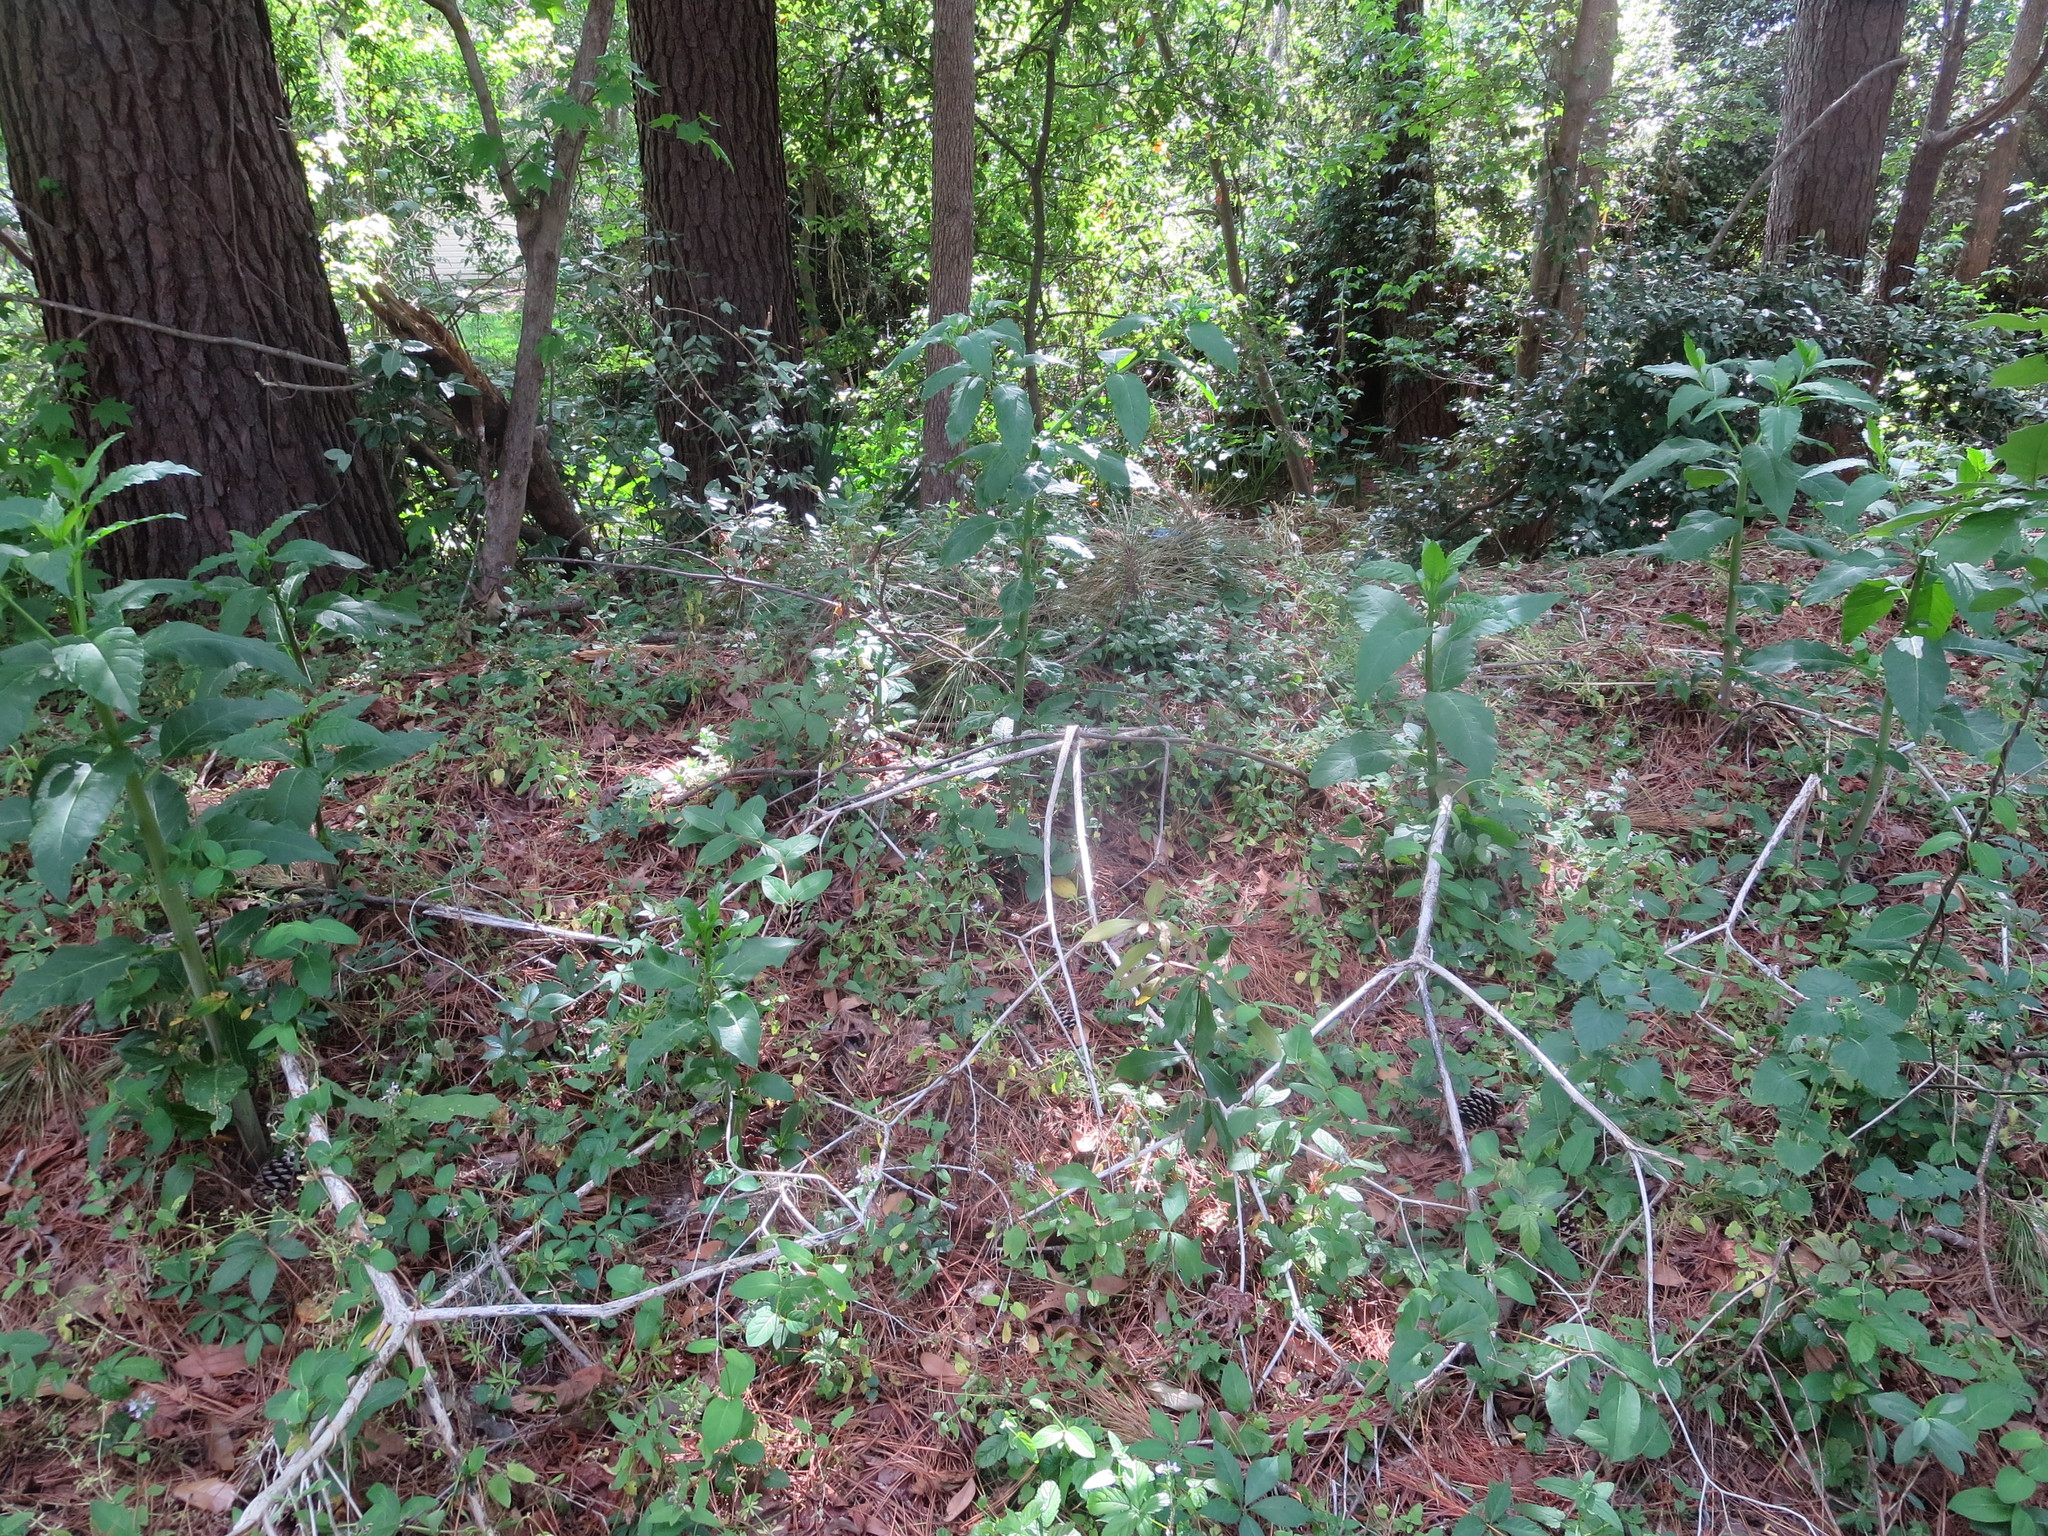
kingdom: Plantae
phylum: Tracheophyta
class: Magnoliopsida
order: Caryophyllales
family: Phytolaccaceae
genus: Phytolacca
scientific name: Phytolacca americana
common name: American pokeweed
